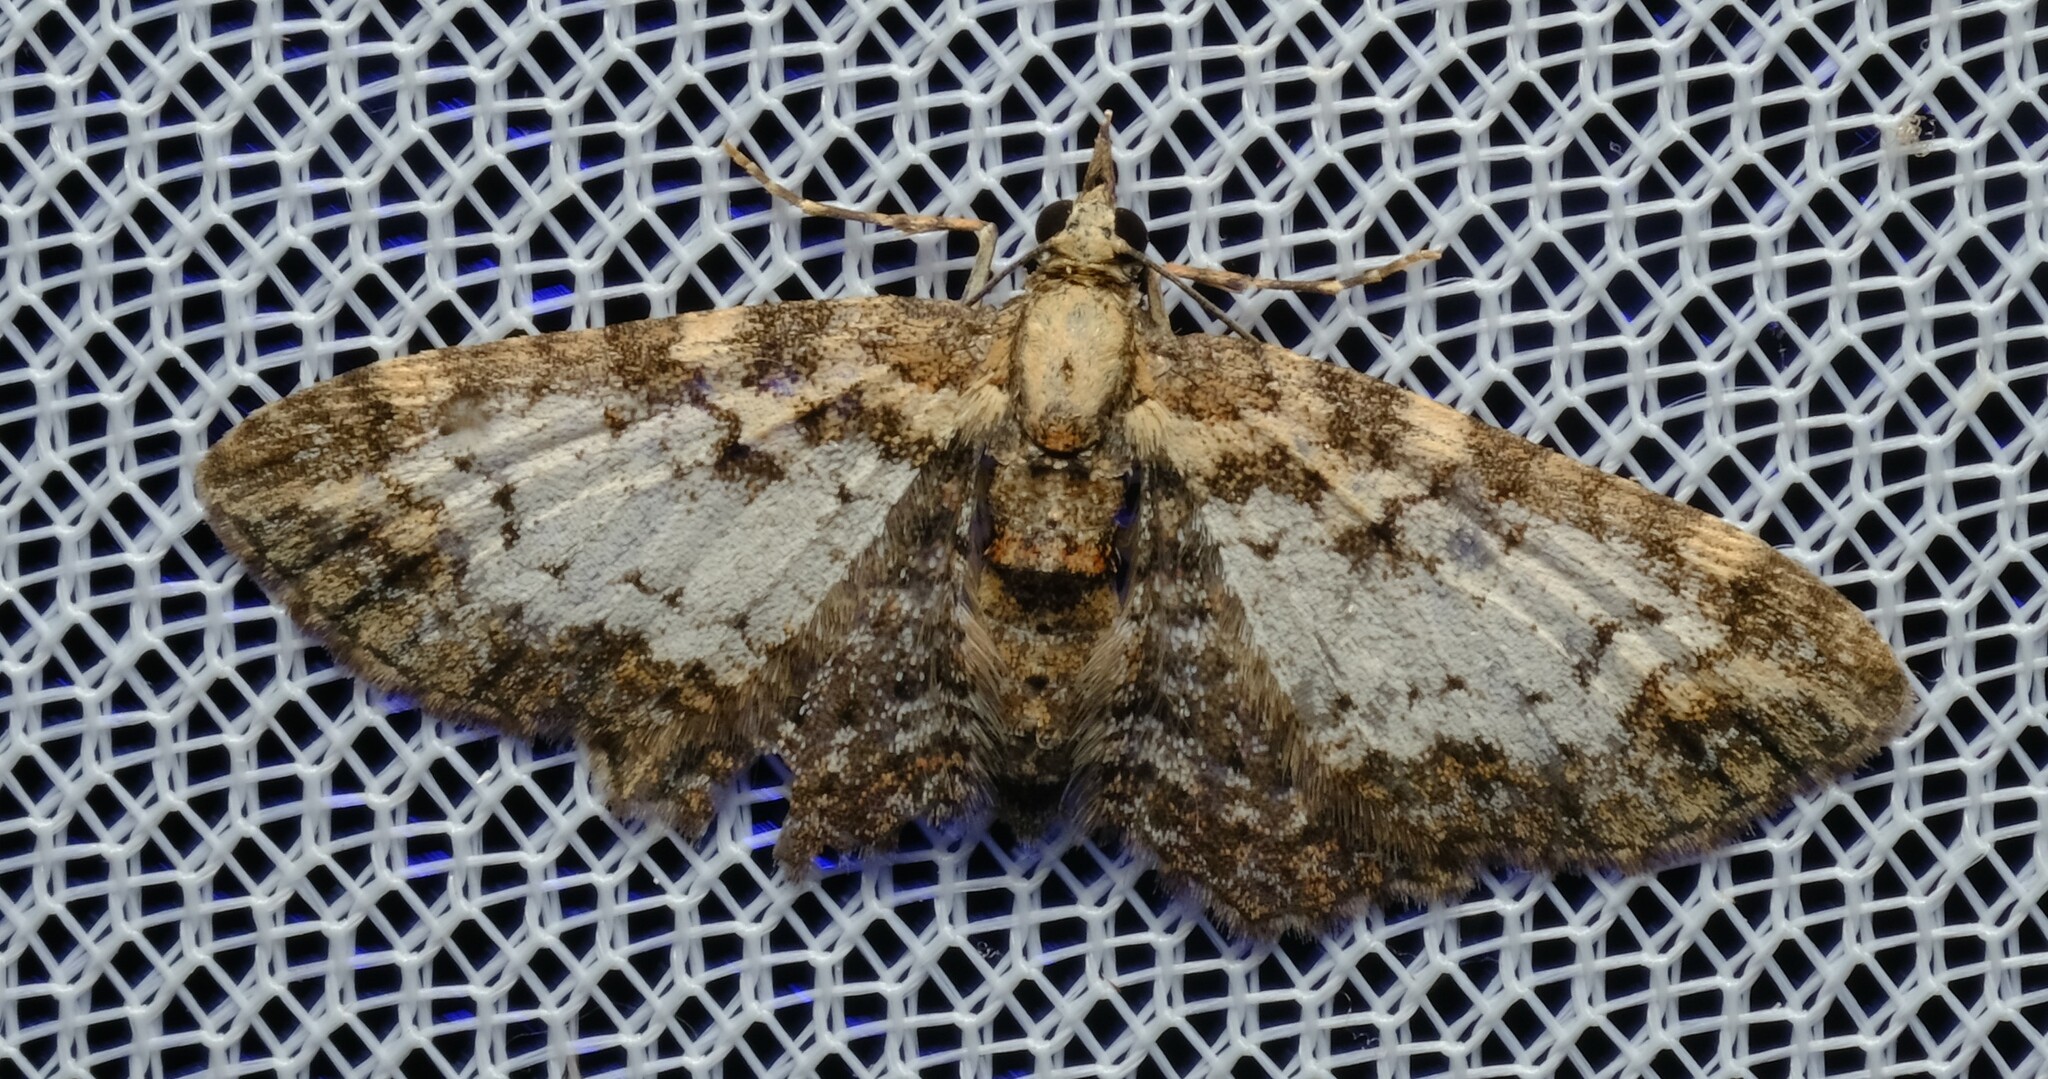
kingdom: Animalia
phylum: Arthropoda
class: Insecta
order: Lepidoptera
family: Geometridae
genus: Pasiphilodes
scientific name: Pasiphilodes testulata
